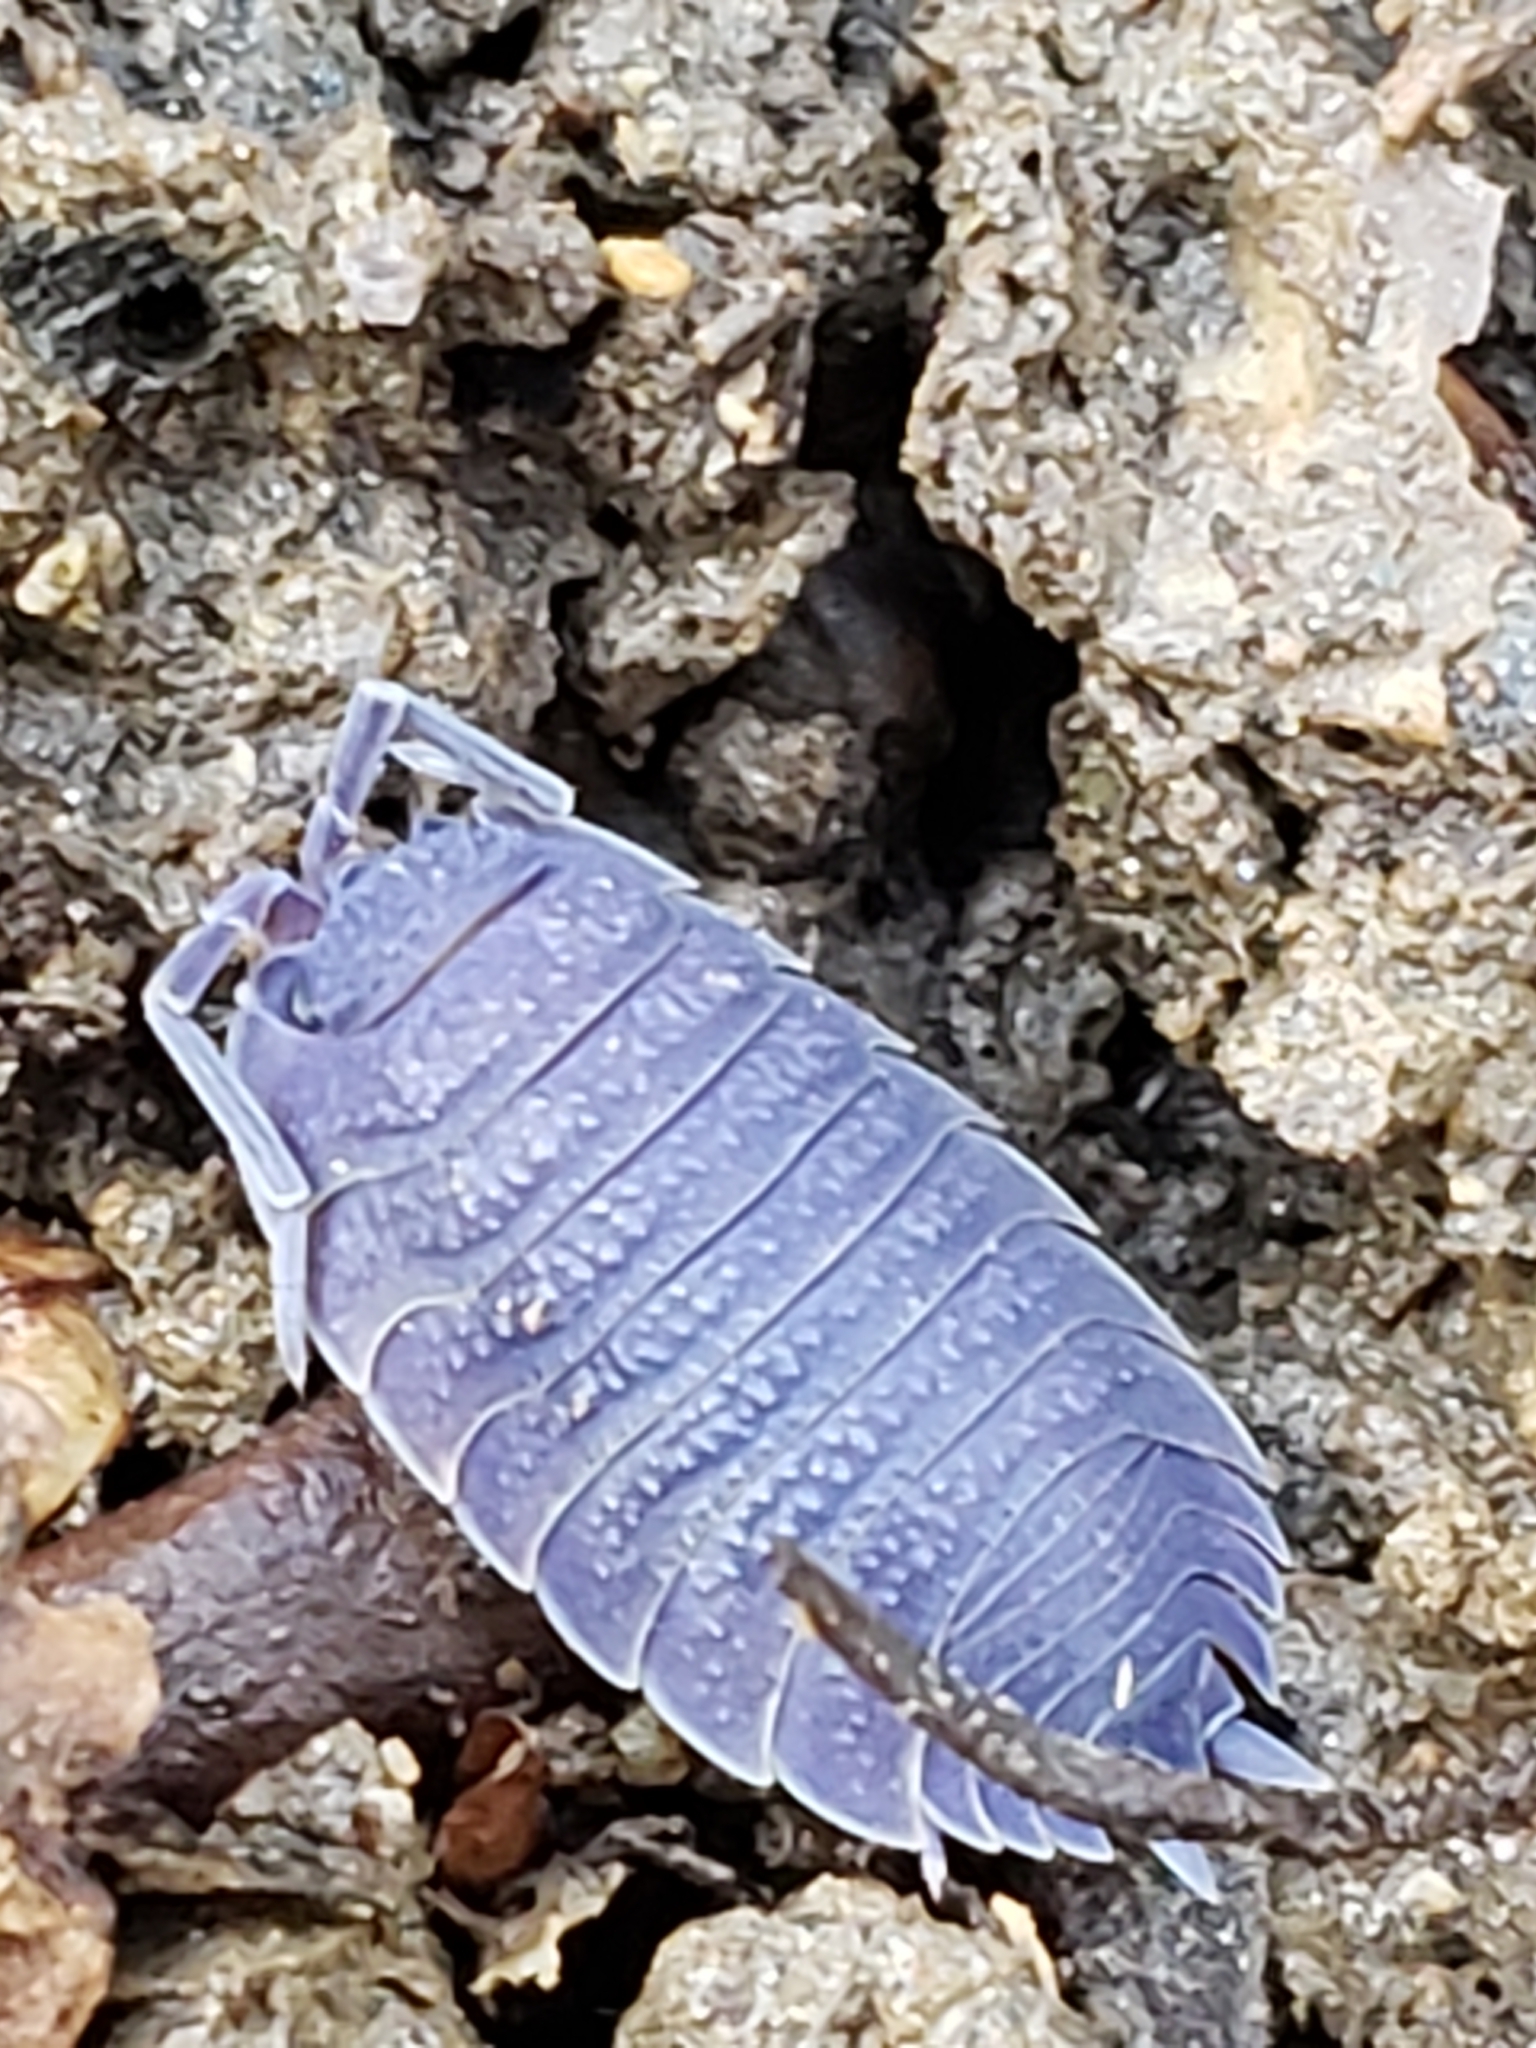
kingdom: Viruses
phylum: Nucleocytoviricota
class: Megaviricetes
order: Pimascovirales
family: Iridoviridae
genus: Iridovirus
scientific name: Iridovirus Invertebrate iridescent virus 31
